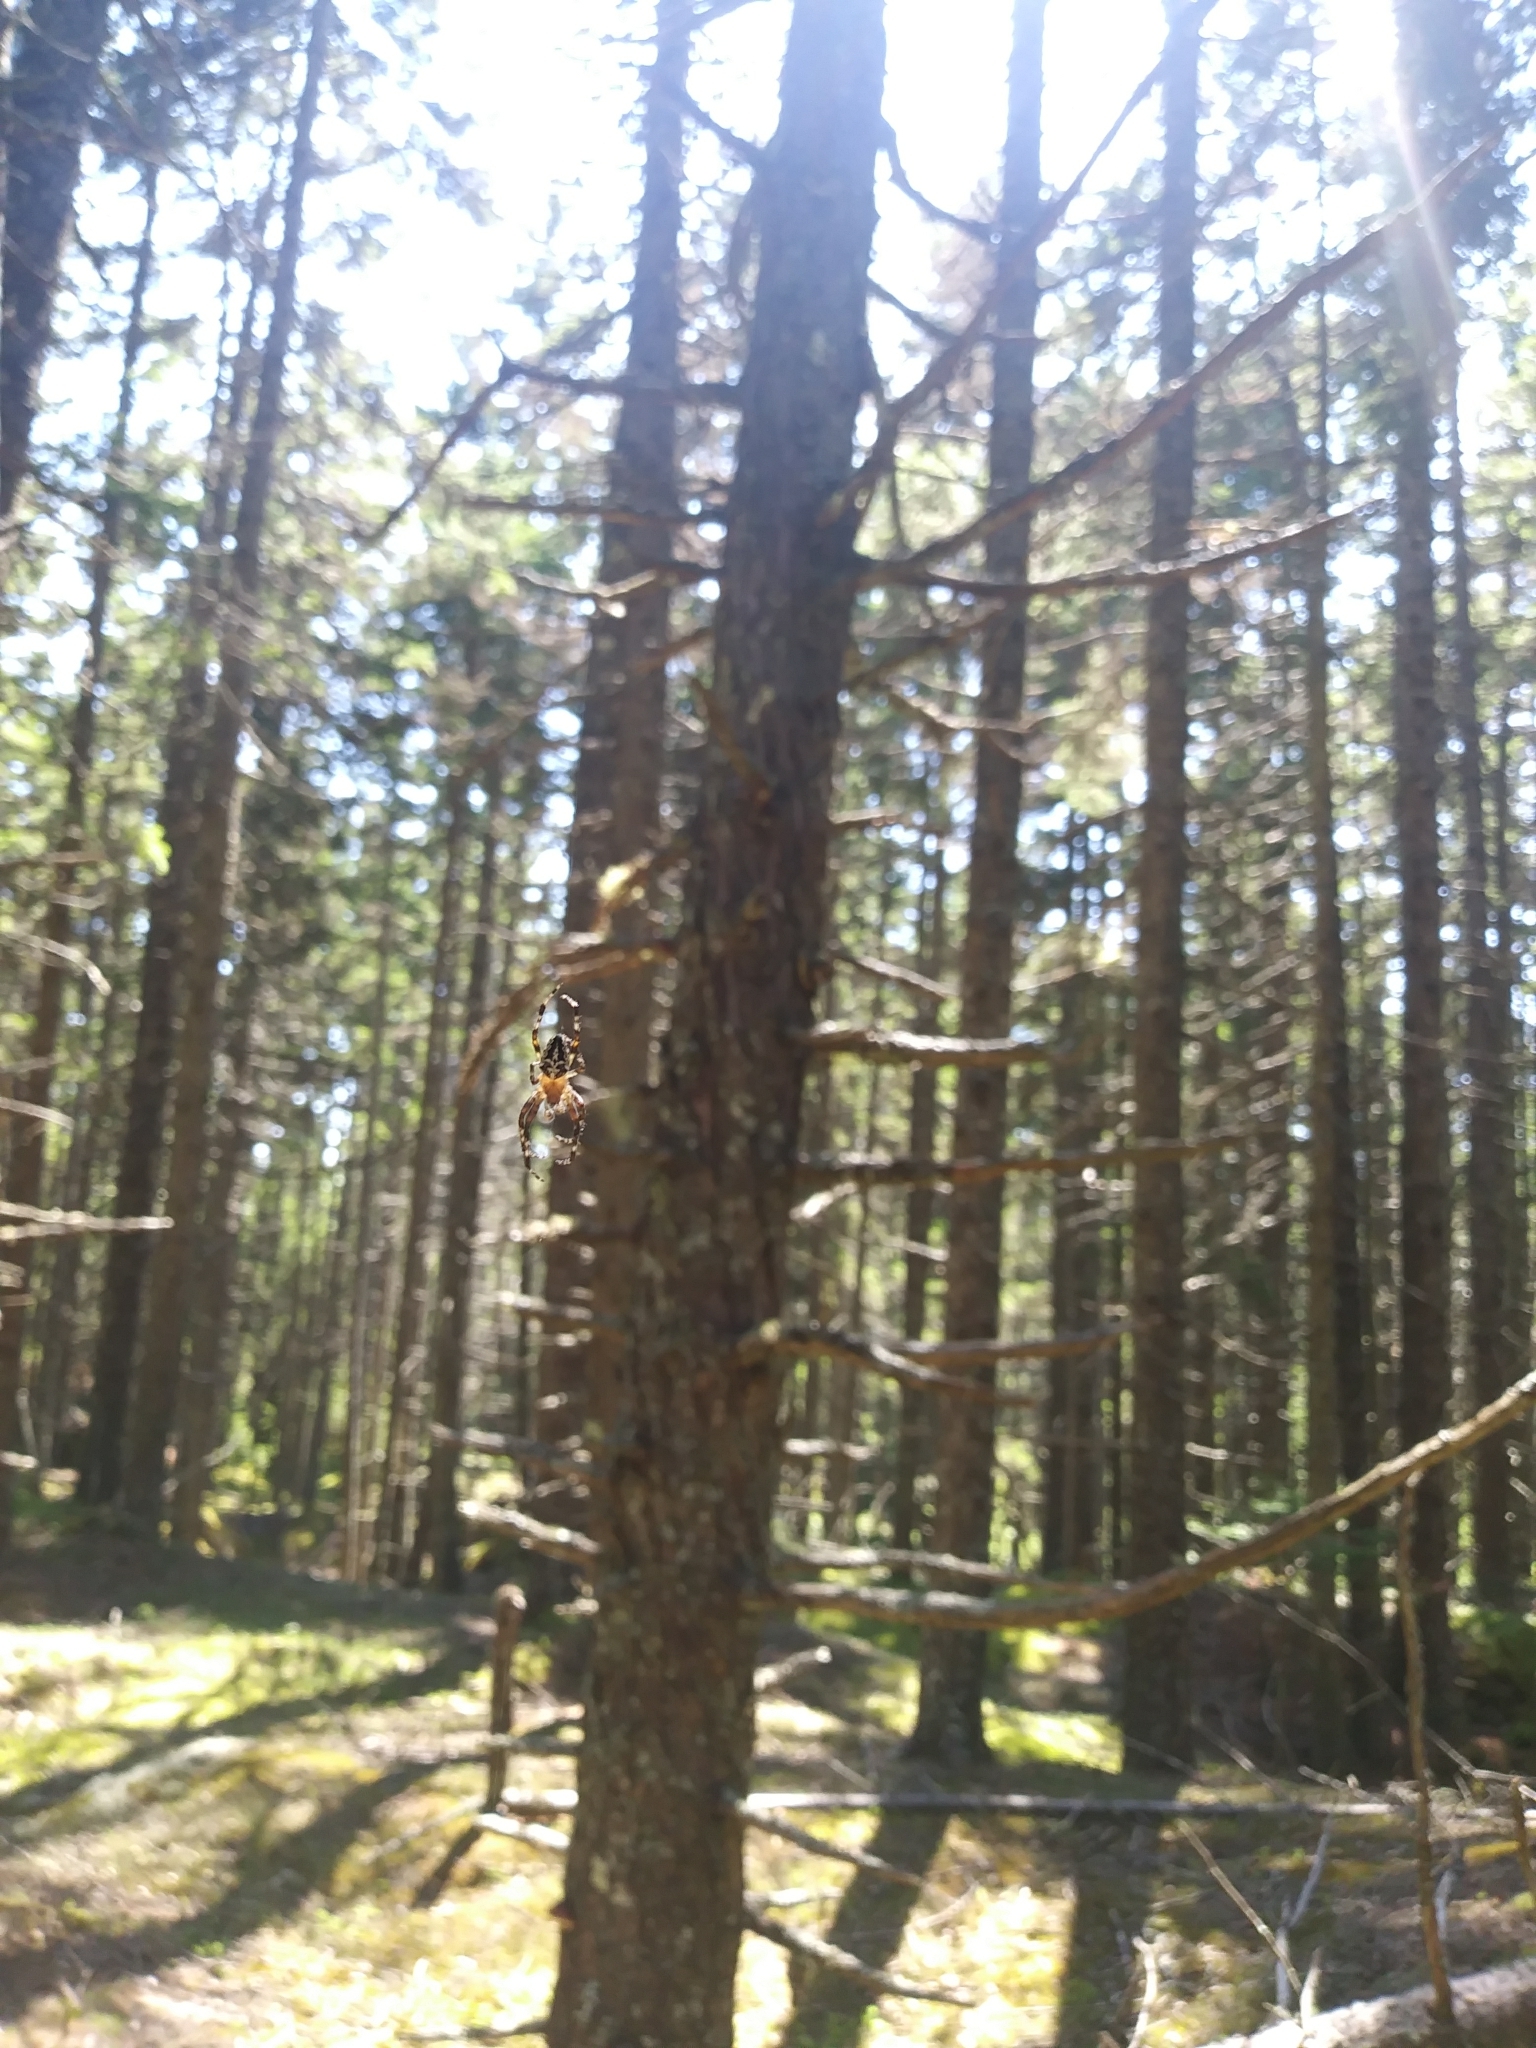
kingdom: Animalia
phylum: Arthropoda
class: Arachnida
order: Araneae
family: Araneidae
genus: Araneus
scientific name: Araneus nordmanni
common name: Nordmann's orbweaver
